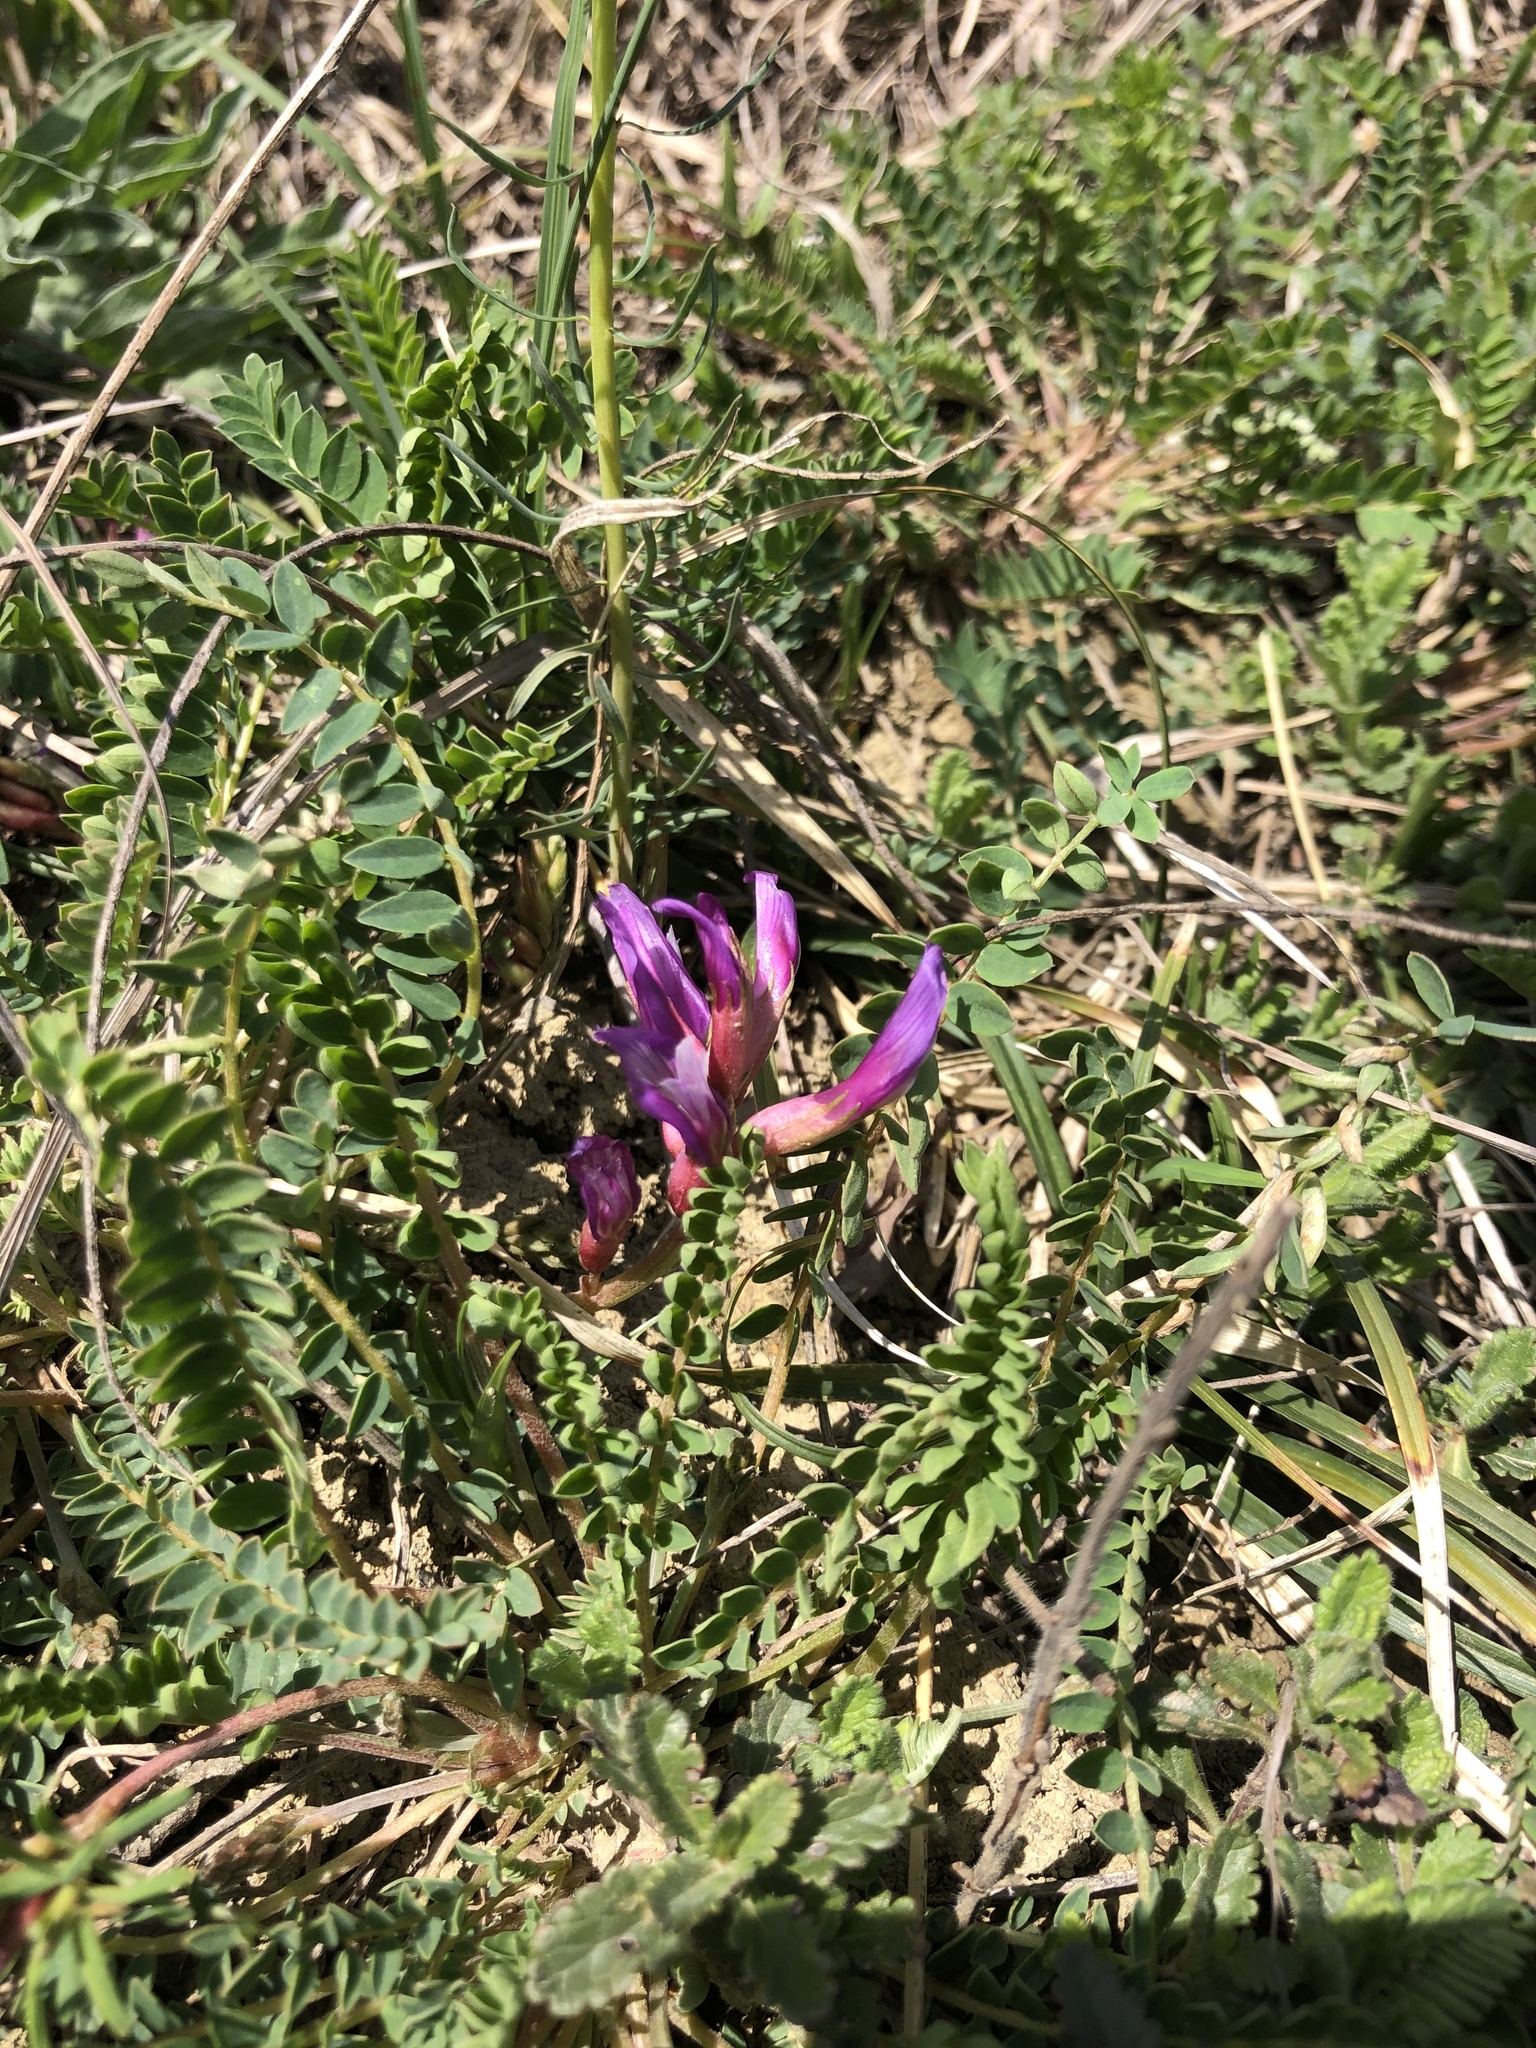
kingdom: Plantae
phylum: Tracheophyta
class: Magnoliopsida
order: Fabales
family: Fabaceae
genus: Astragalus
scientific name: Astragalus monspessulanus
